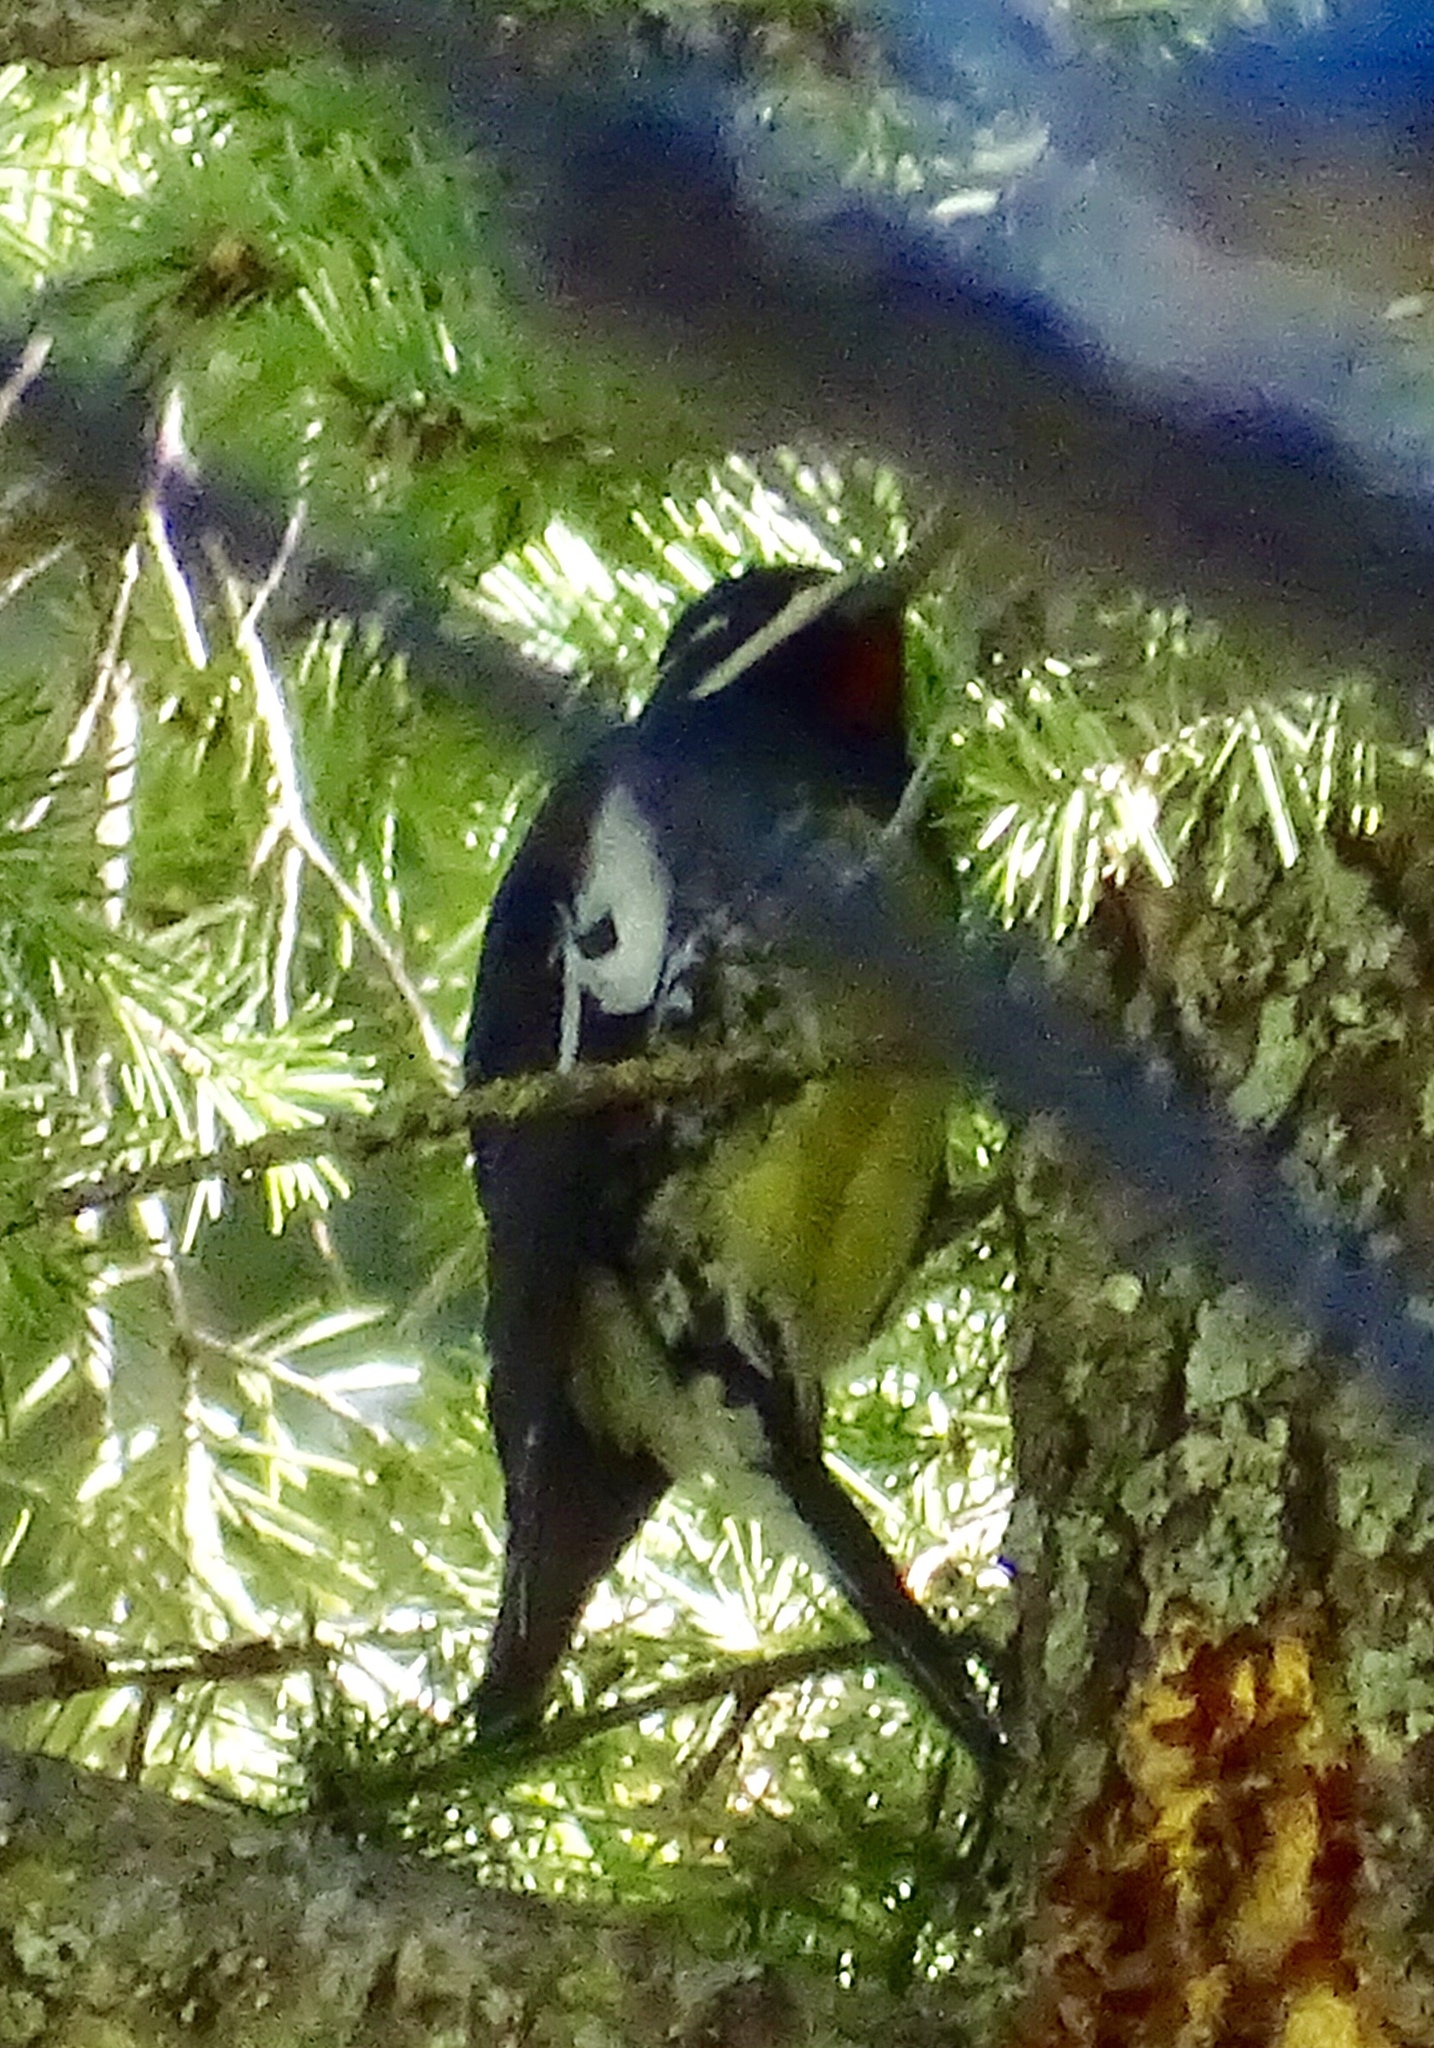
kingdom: Animalia
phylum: Chordata
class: Aves
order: Piciformes
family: Picidae
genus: Sphyrapicus
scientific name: Sphyrapicus thyroideus
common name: Williamson's sapsucker
